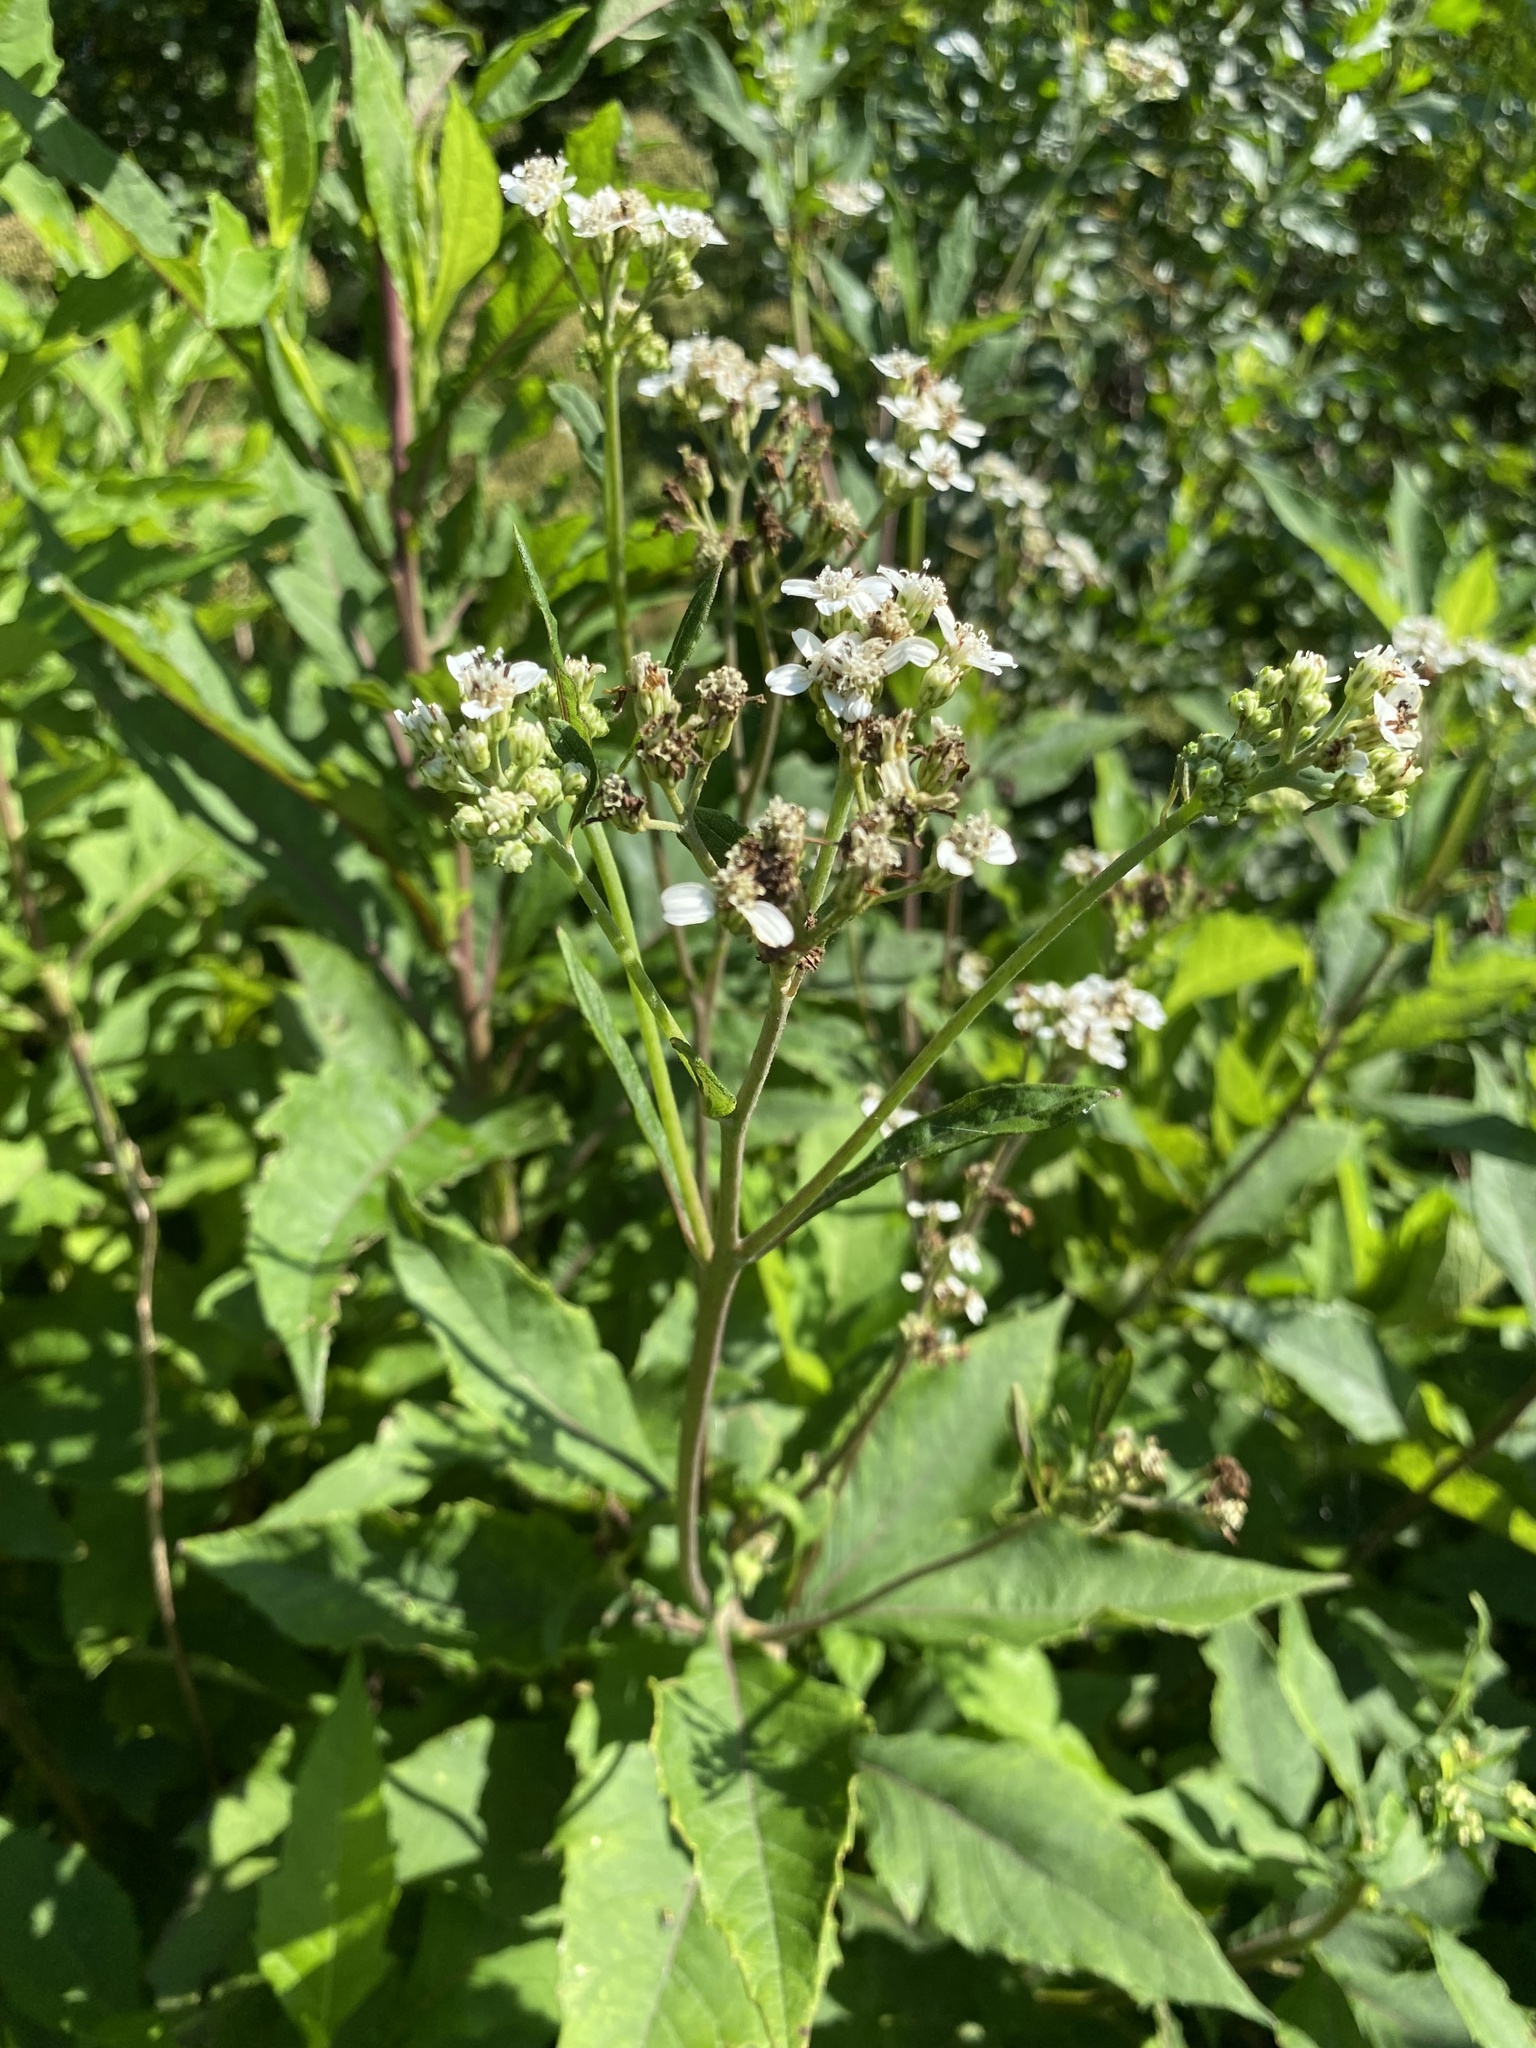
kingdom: Plantae
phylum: Tracheophyta
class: Magnoliopsida
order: Asterales
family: Asteraceae
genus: Verbesina
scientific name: Verbesina virginica
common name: Frostweed
